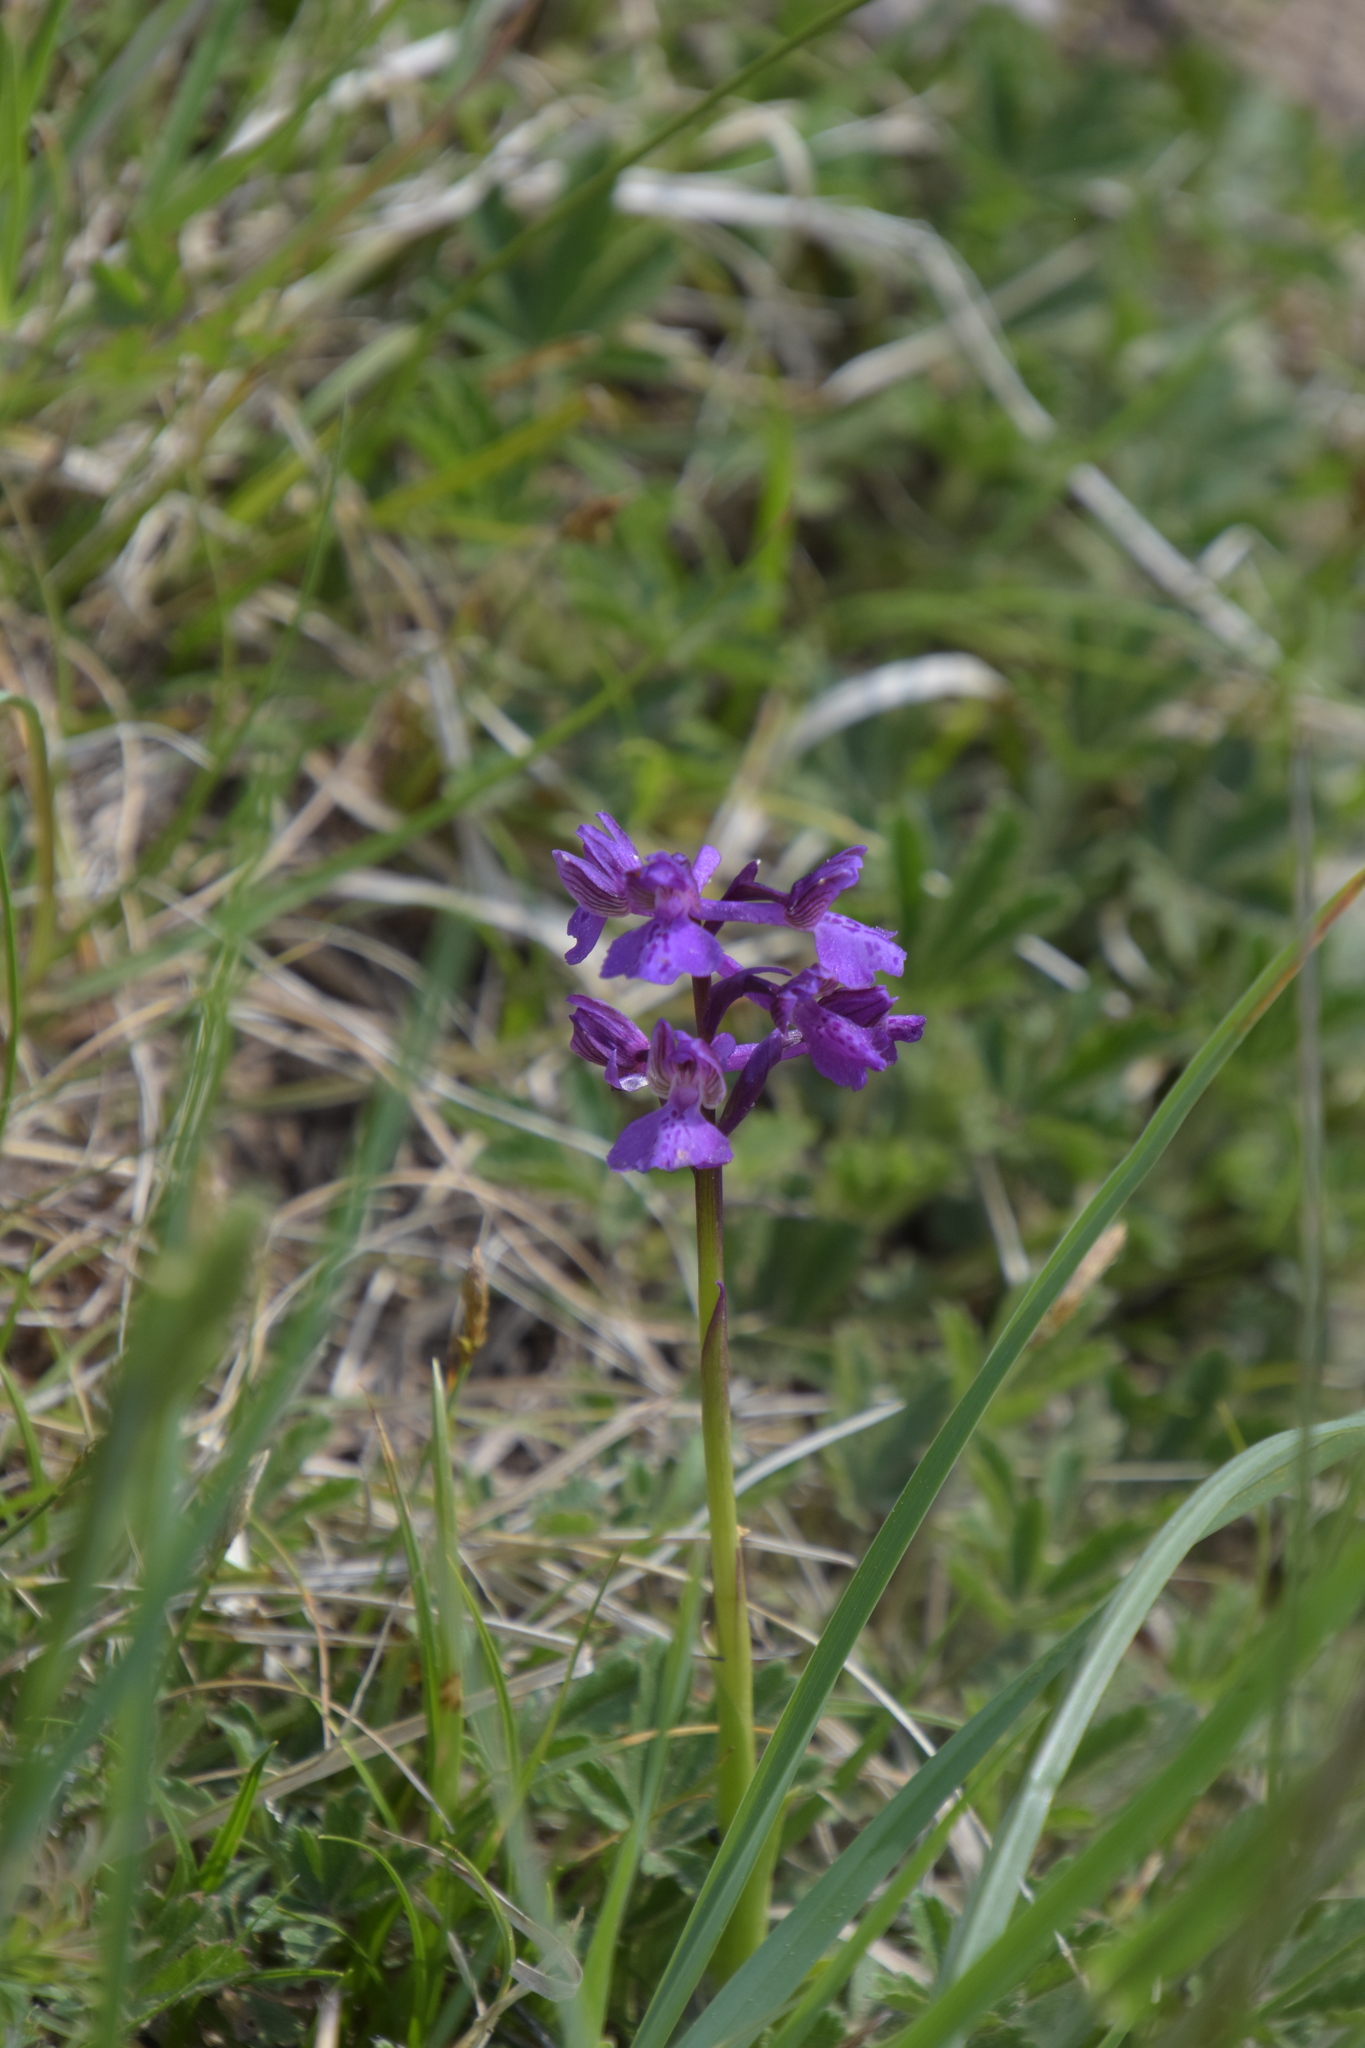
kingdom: Plantae
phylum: Tracheophyta
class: Liliopsida
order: Asparagales
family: Orchidaceae
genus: Anacamptis
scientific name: Anacamptis morio
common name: Green-winged orchid
